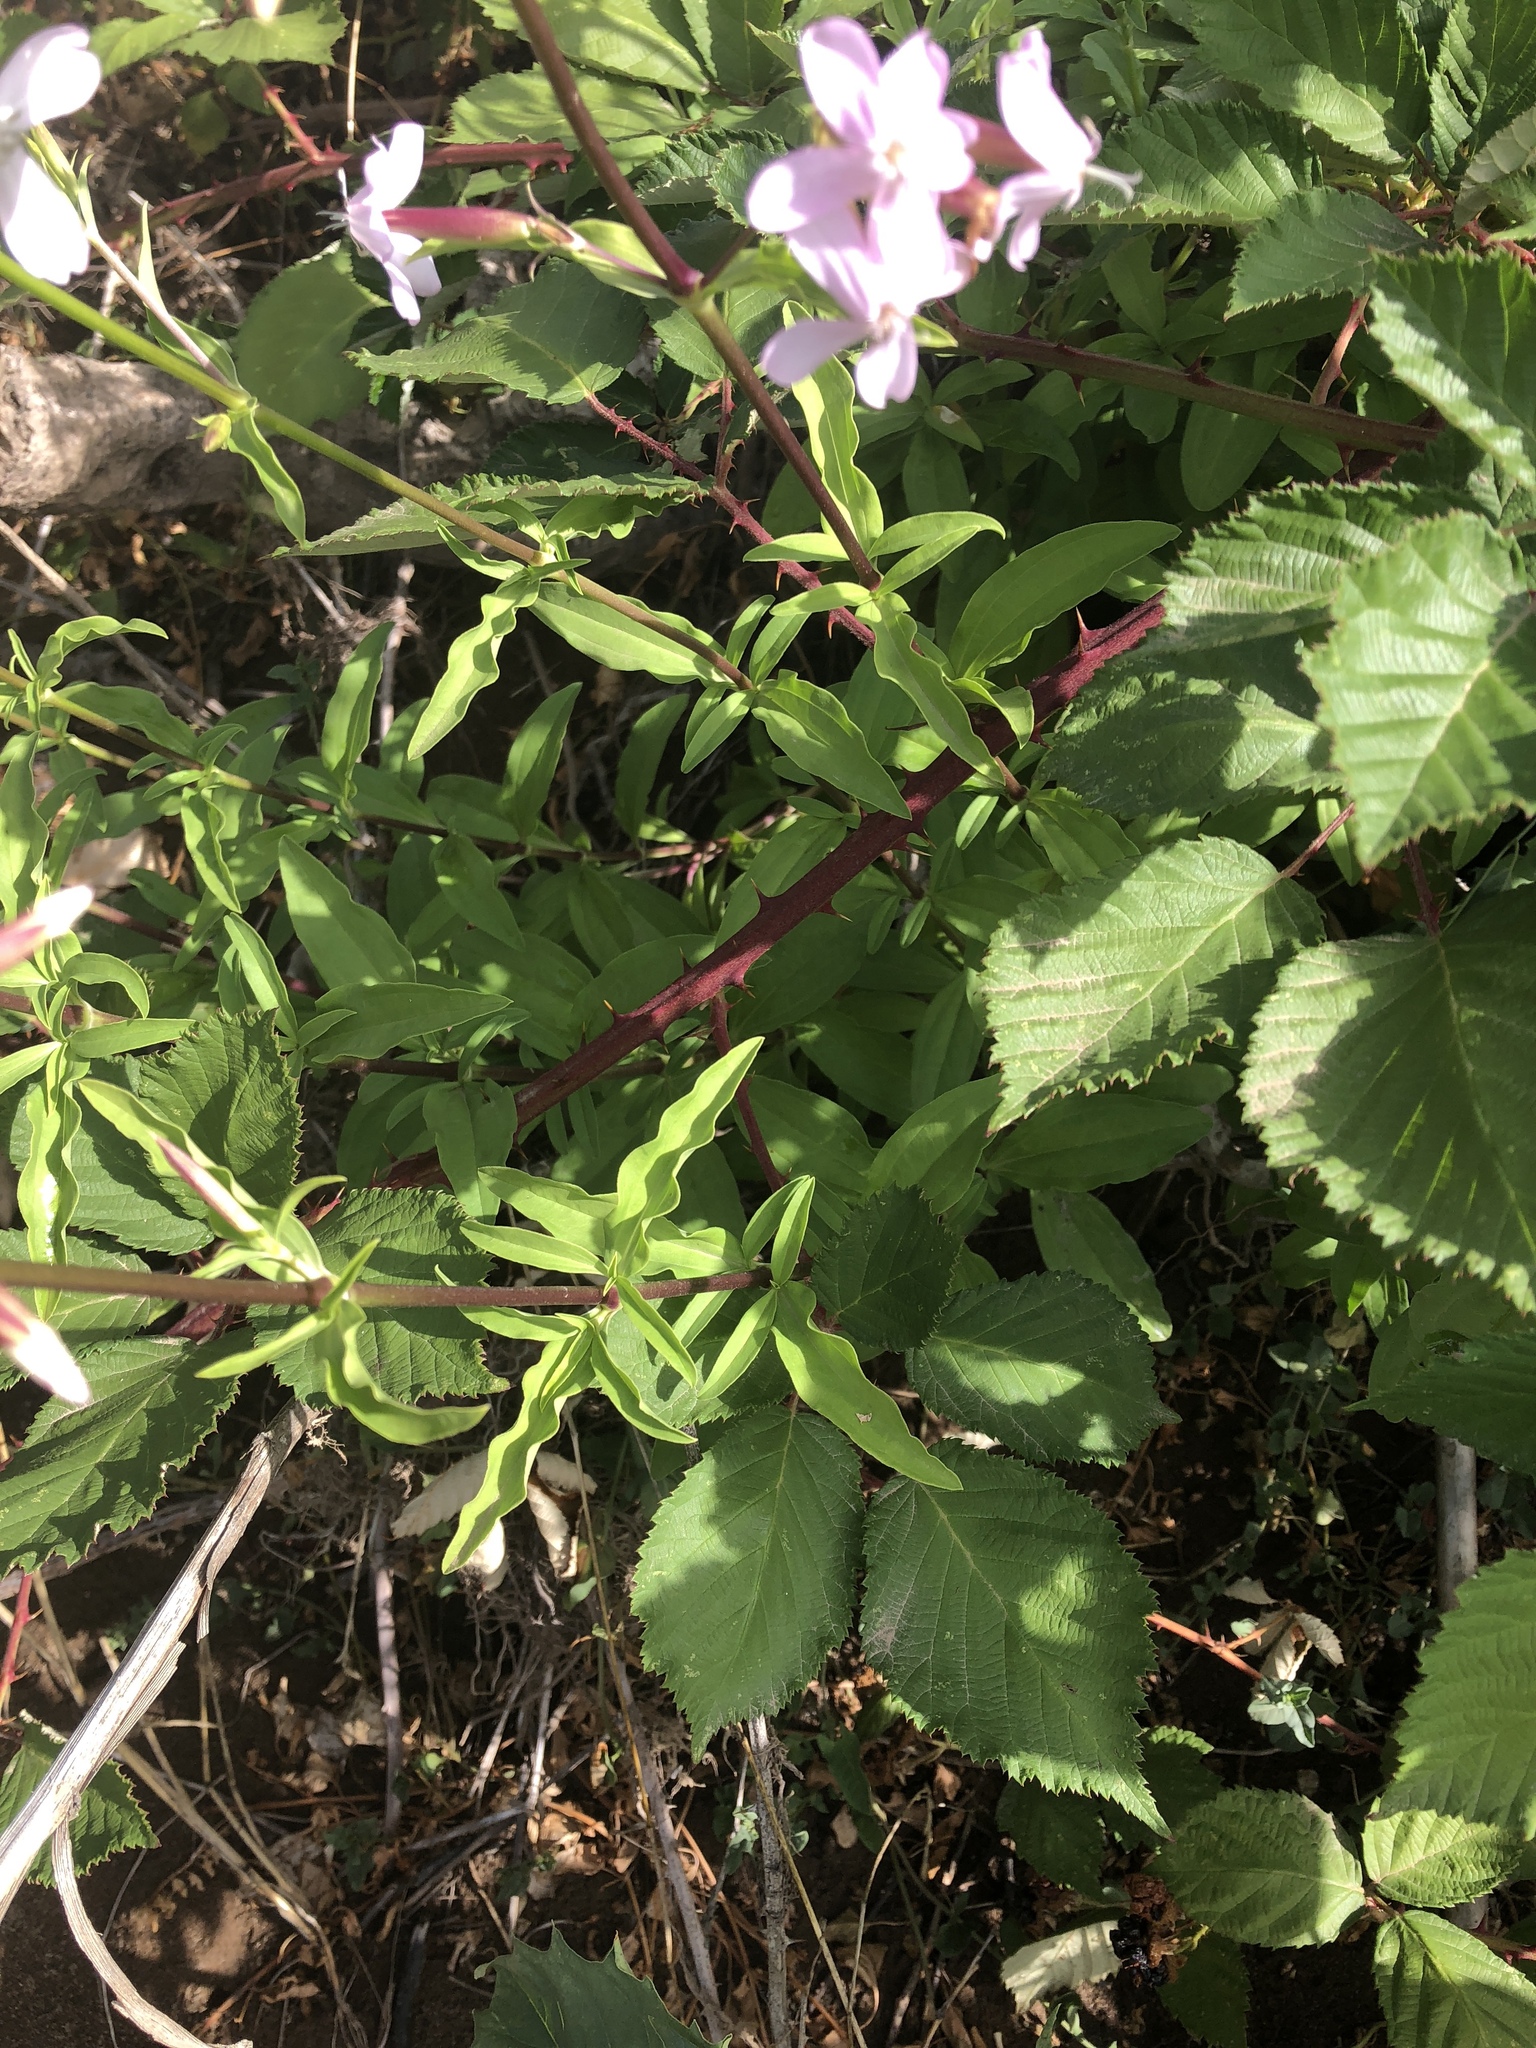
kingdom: Plantae
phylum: Tracheophyta
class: Magnoliopsida
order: Caryophyllales
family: Caryophyllaceae
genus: Saponaria
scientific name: Saponaria officinalis
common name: Soapwort
